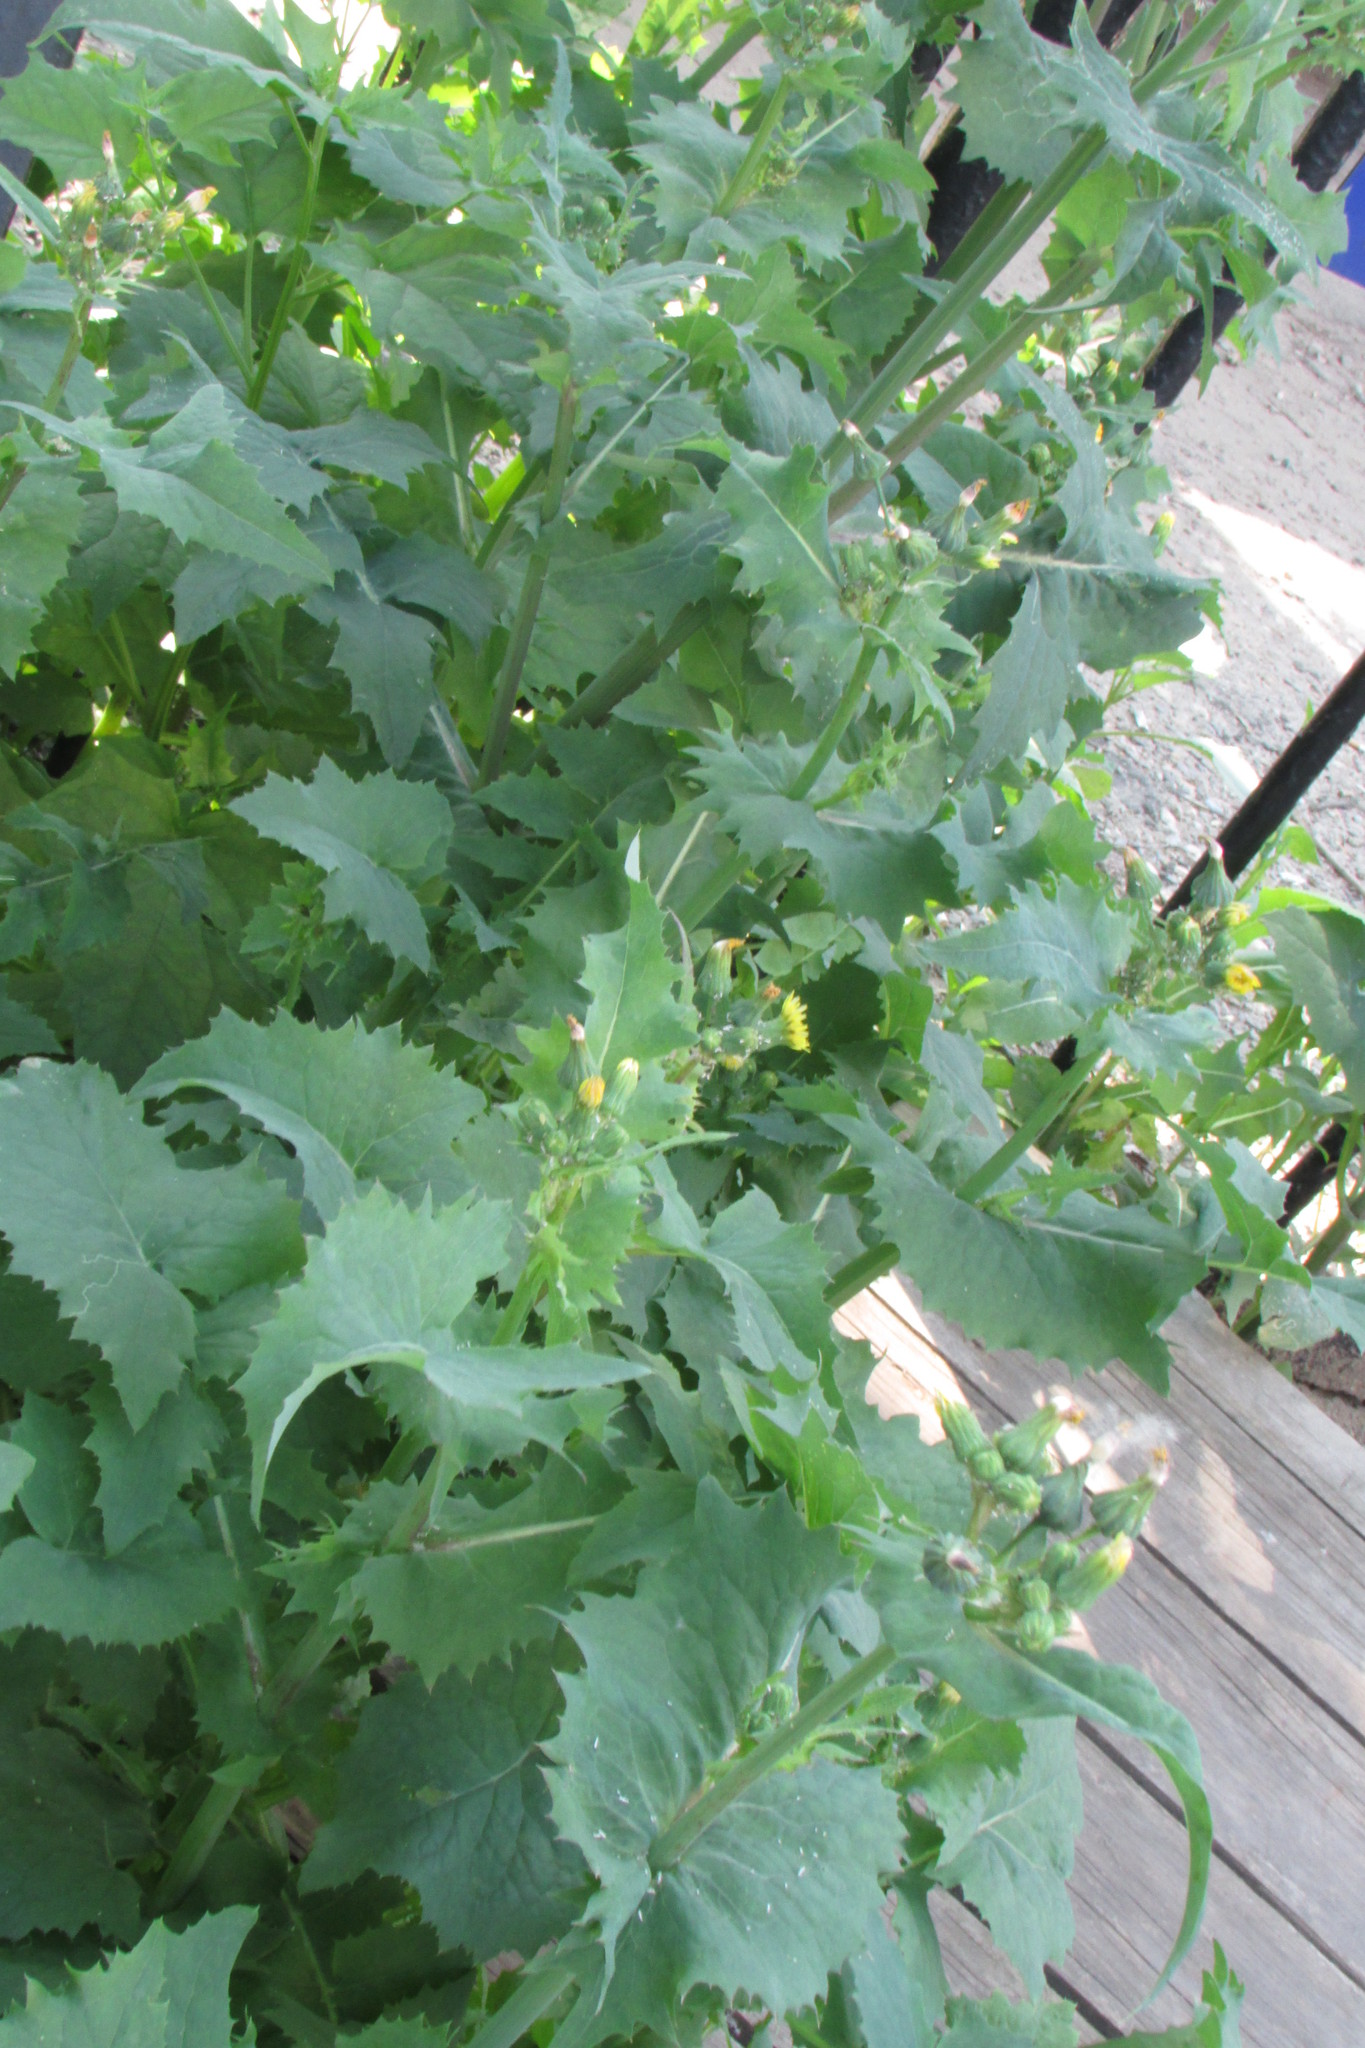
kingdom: Plantae
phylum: Tracheophyta
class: Magnoliopsida
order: Asterales
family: Asteraceae
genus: Sonchus
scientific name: Sonchus oleraceus
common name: Common sowthistle
